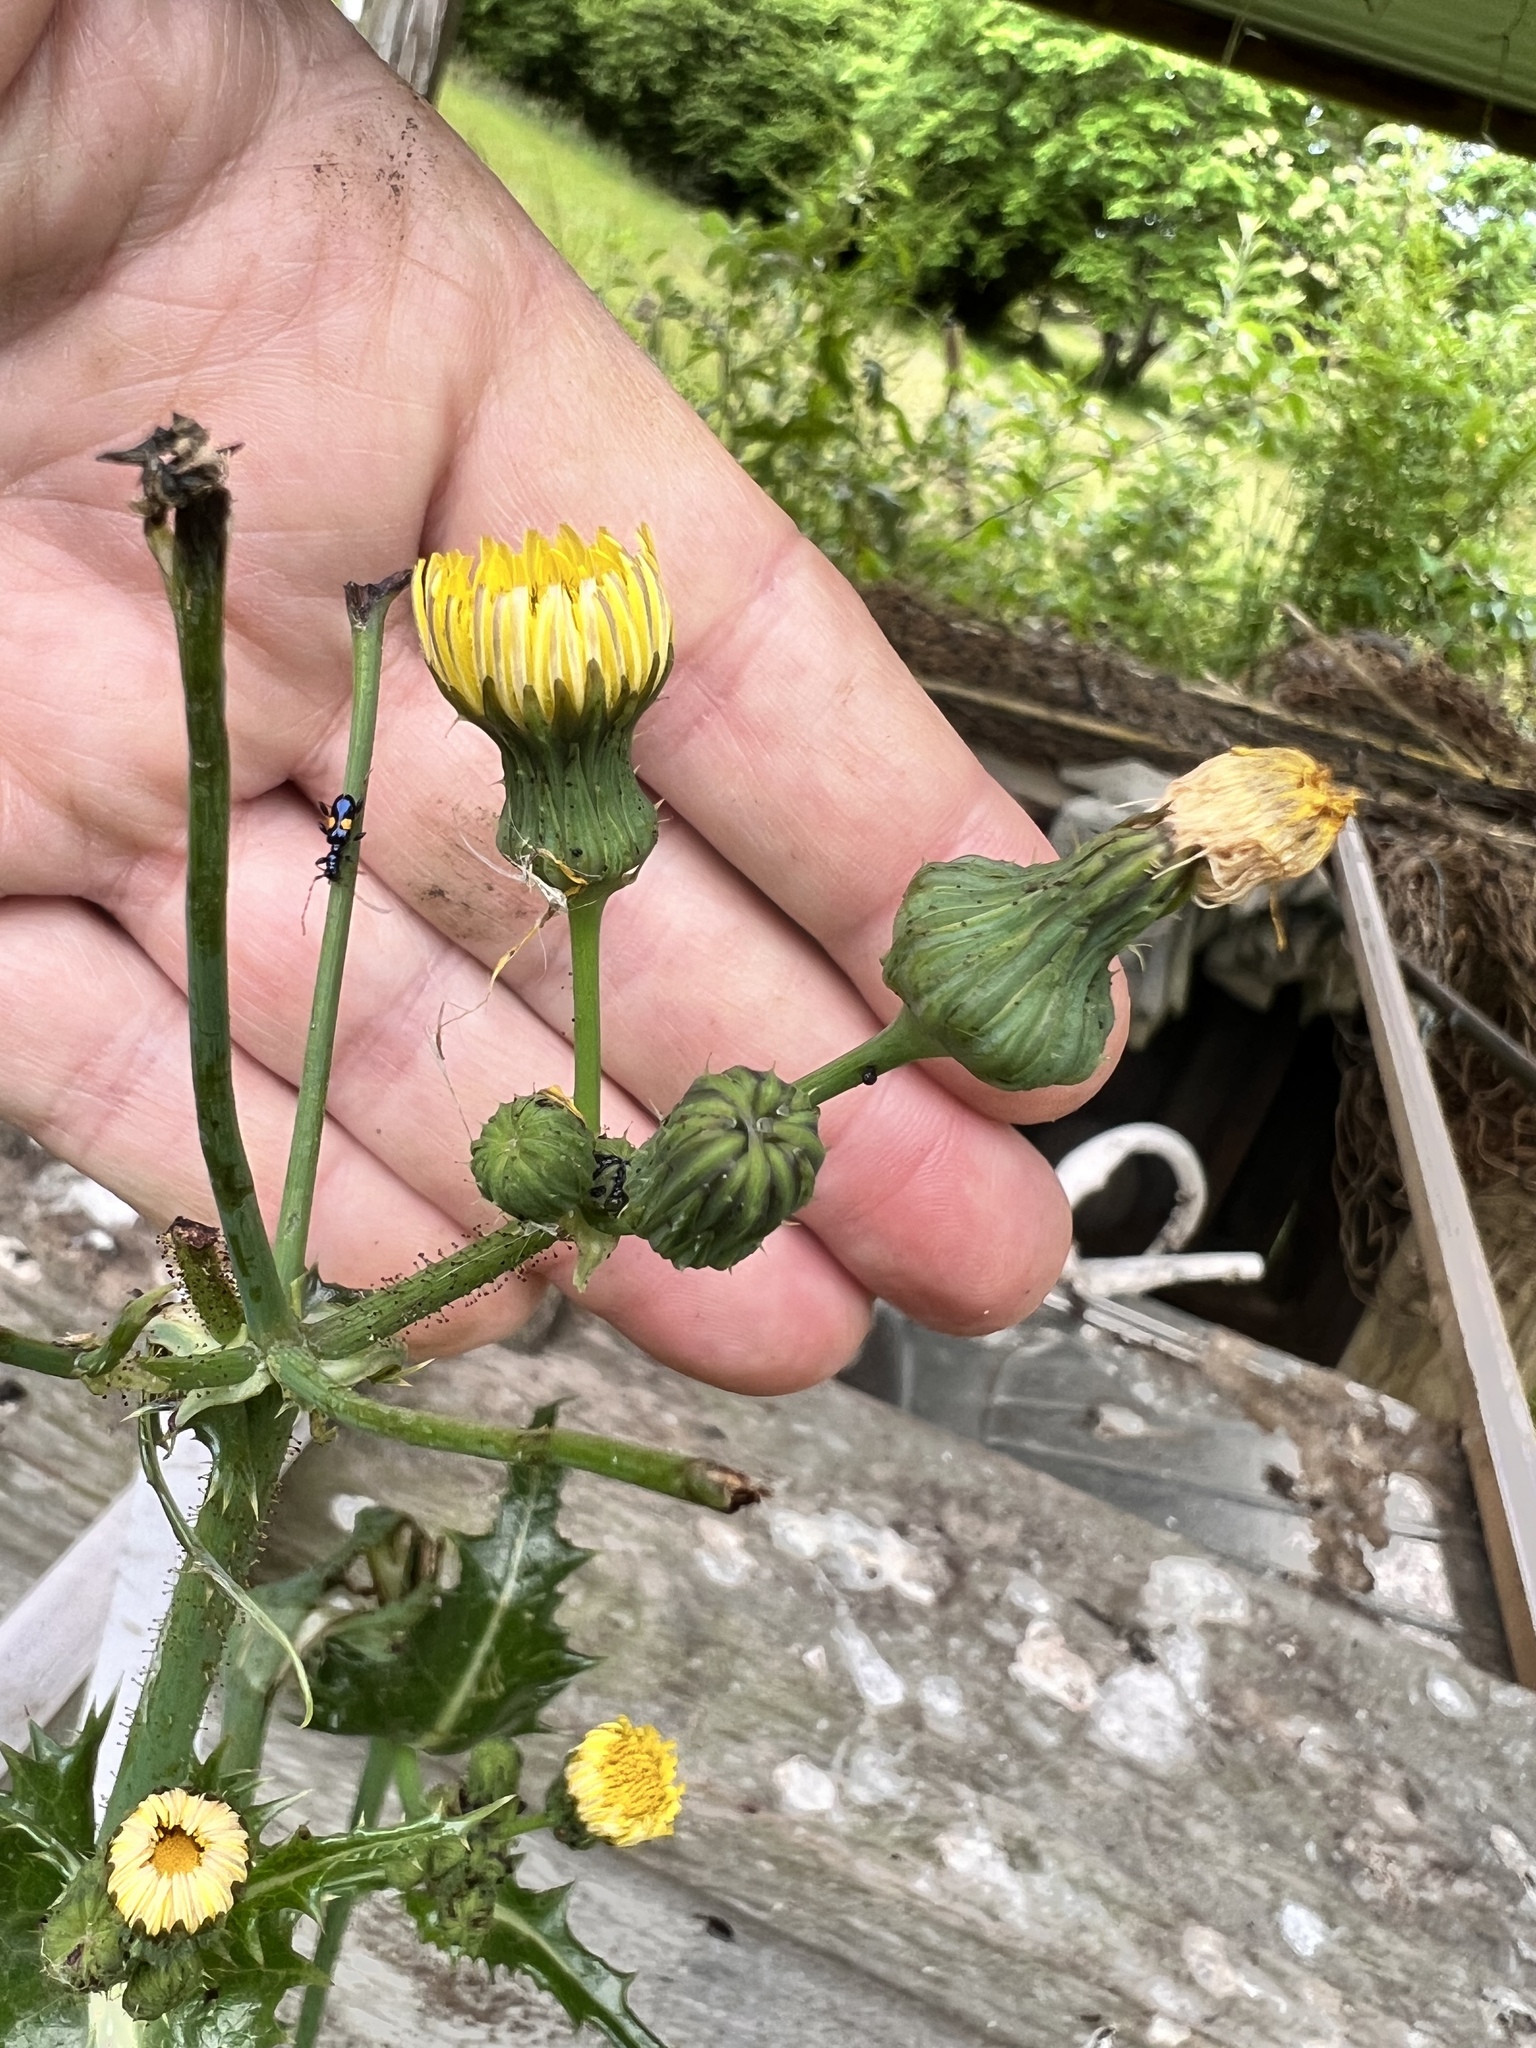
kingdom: Plantae
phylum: Tracheophyta
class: Magnoliopsida
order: Asterales
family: Asteraceae
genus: Sonchus
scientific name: Sonchus asper
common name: Prickly sow-thistle
